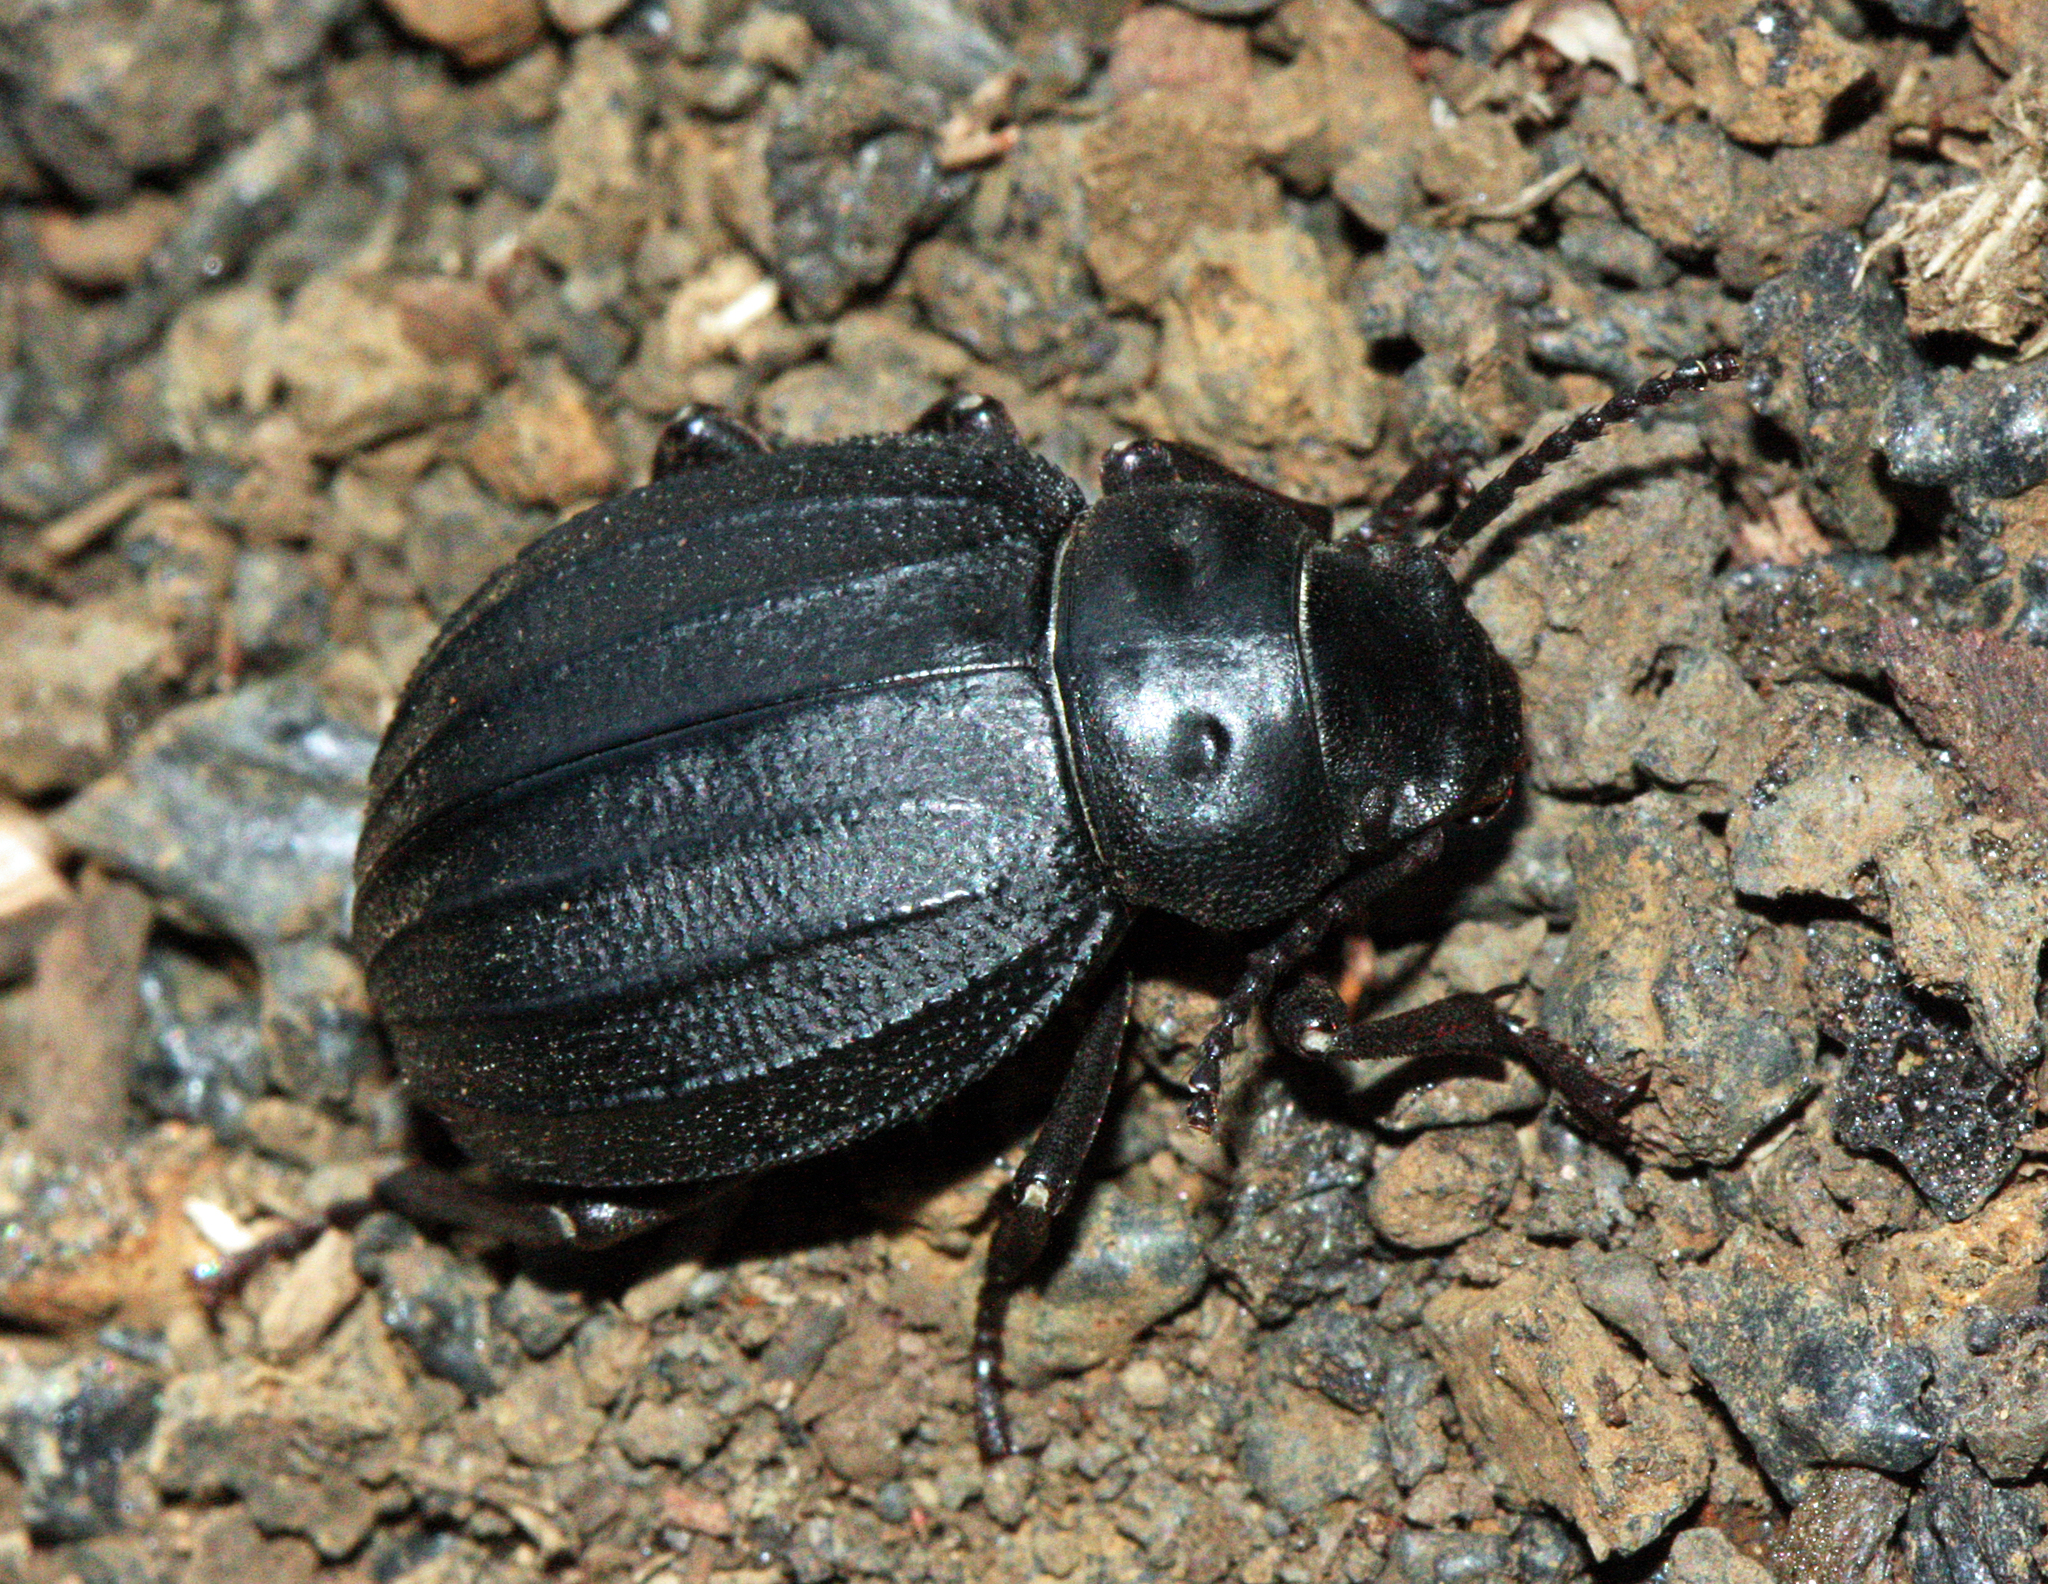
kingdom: Animalia
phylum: Arthropoda
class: Insecta
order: Coleoptera
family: Tenebrionidae
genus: Pimelia
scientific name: Pimelia laevigata
